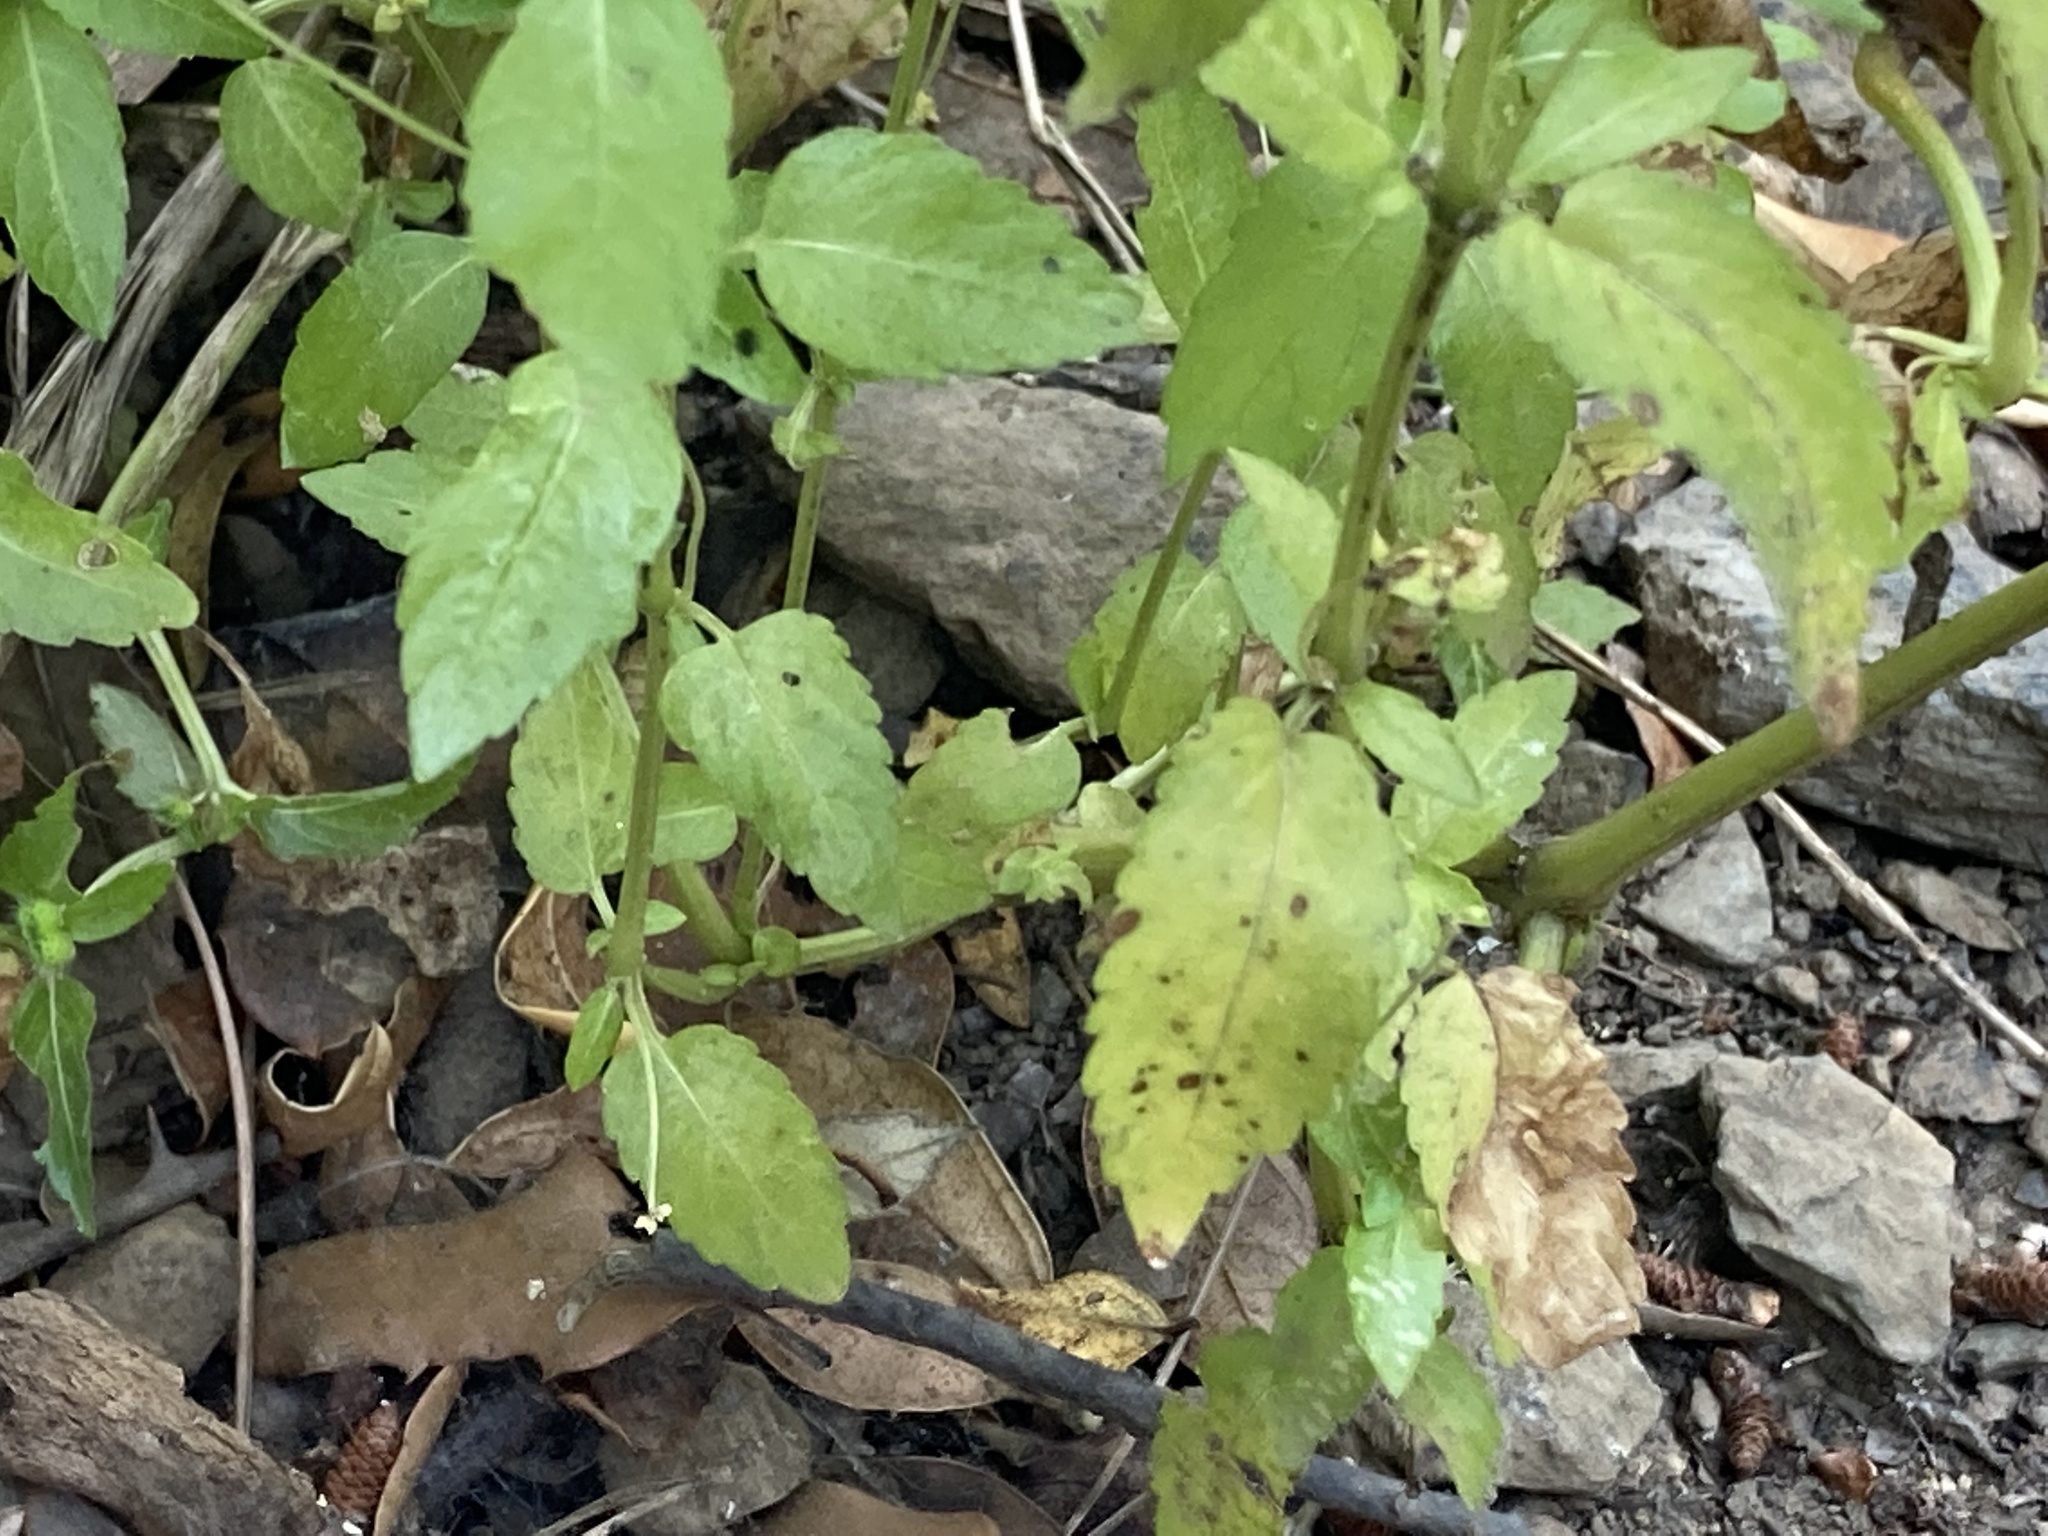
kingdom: Plantae
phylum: Tracheophyta
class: Magnoliopsida
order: Malpighiales
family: Euphorbiaceae
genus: Mercurialis
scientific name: Mercurialis annua
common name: Annual mercury
